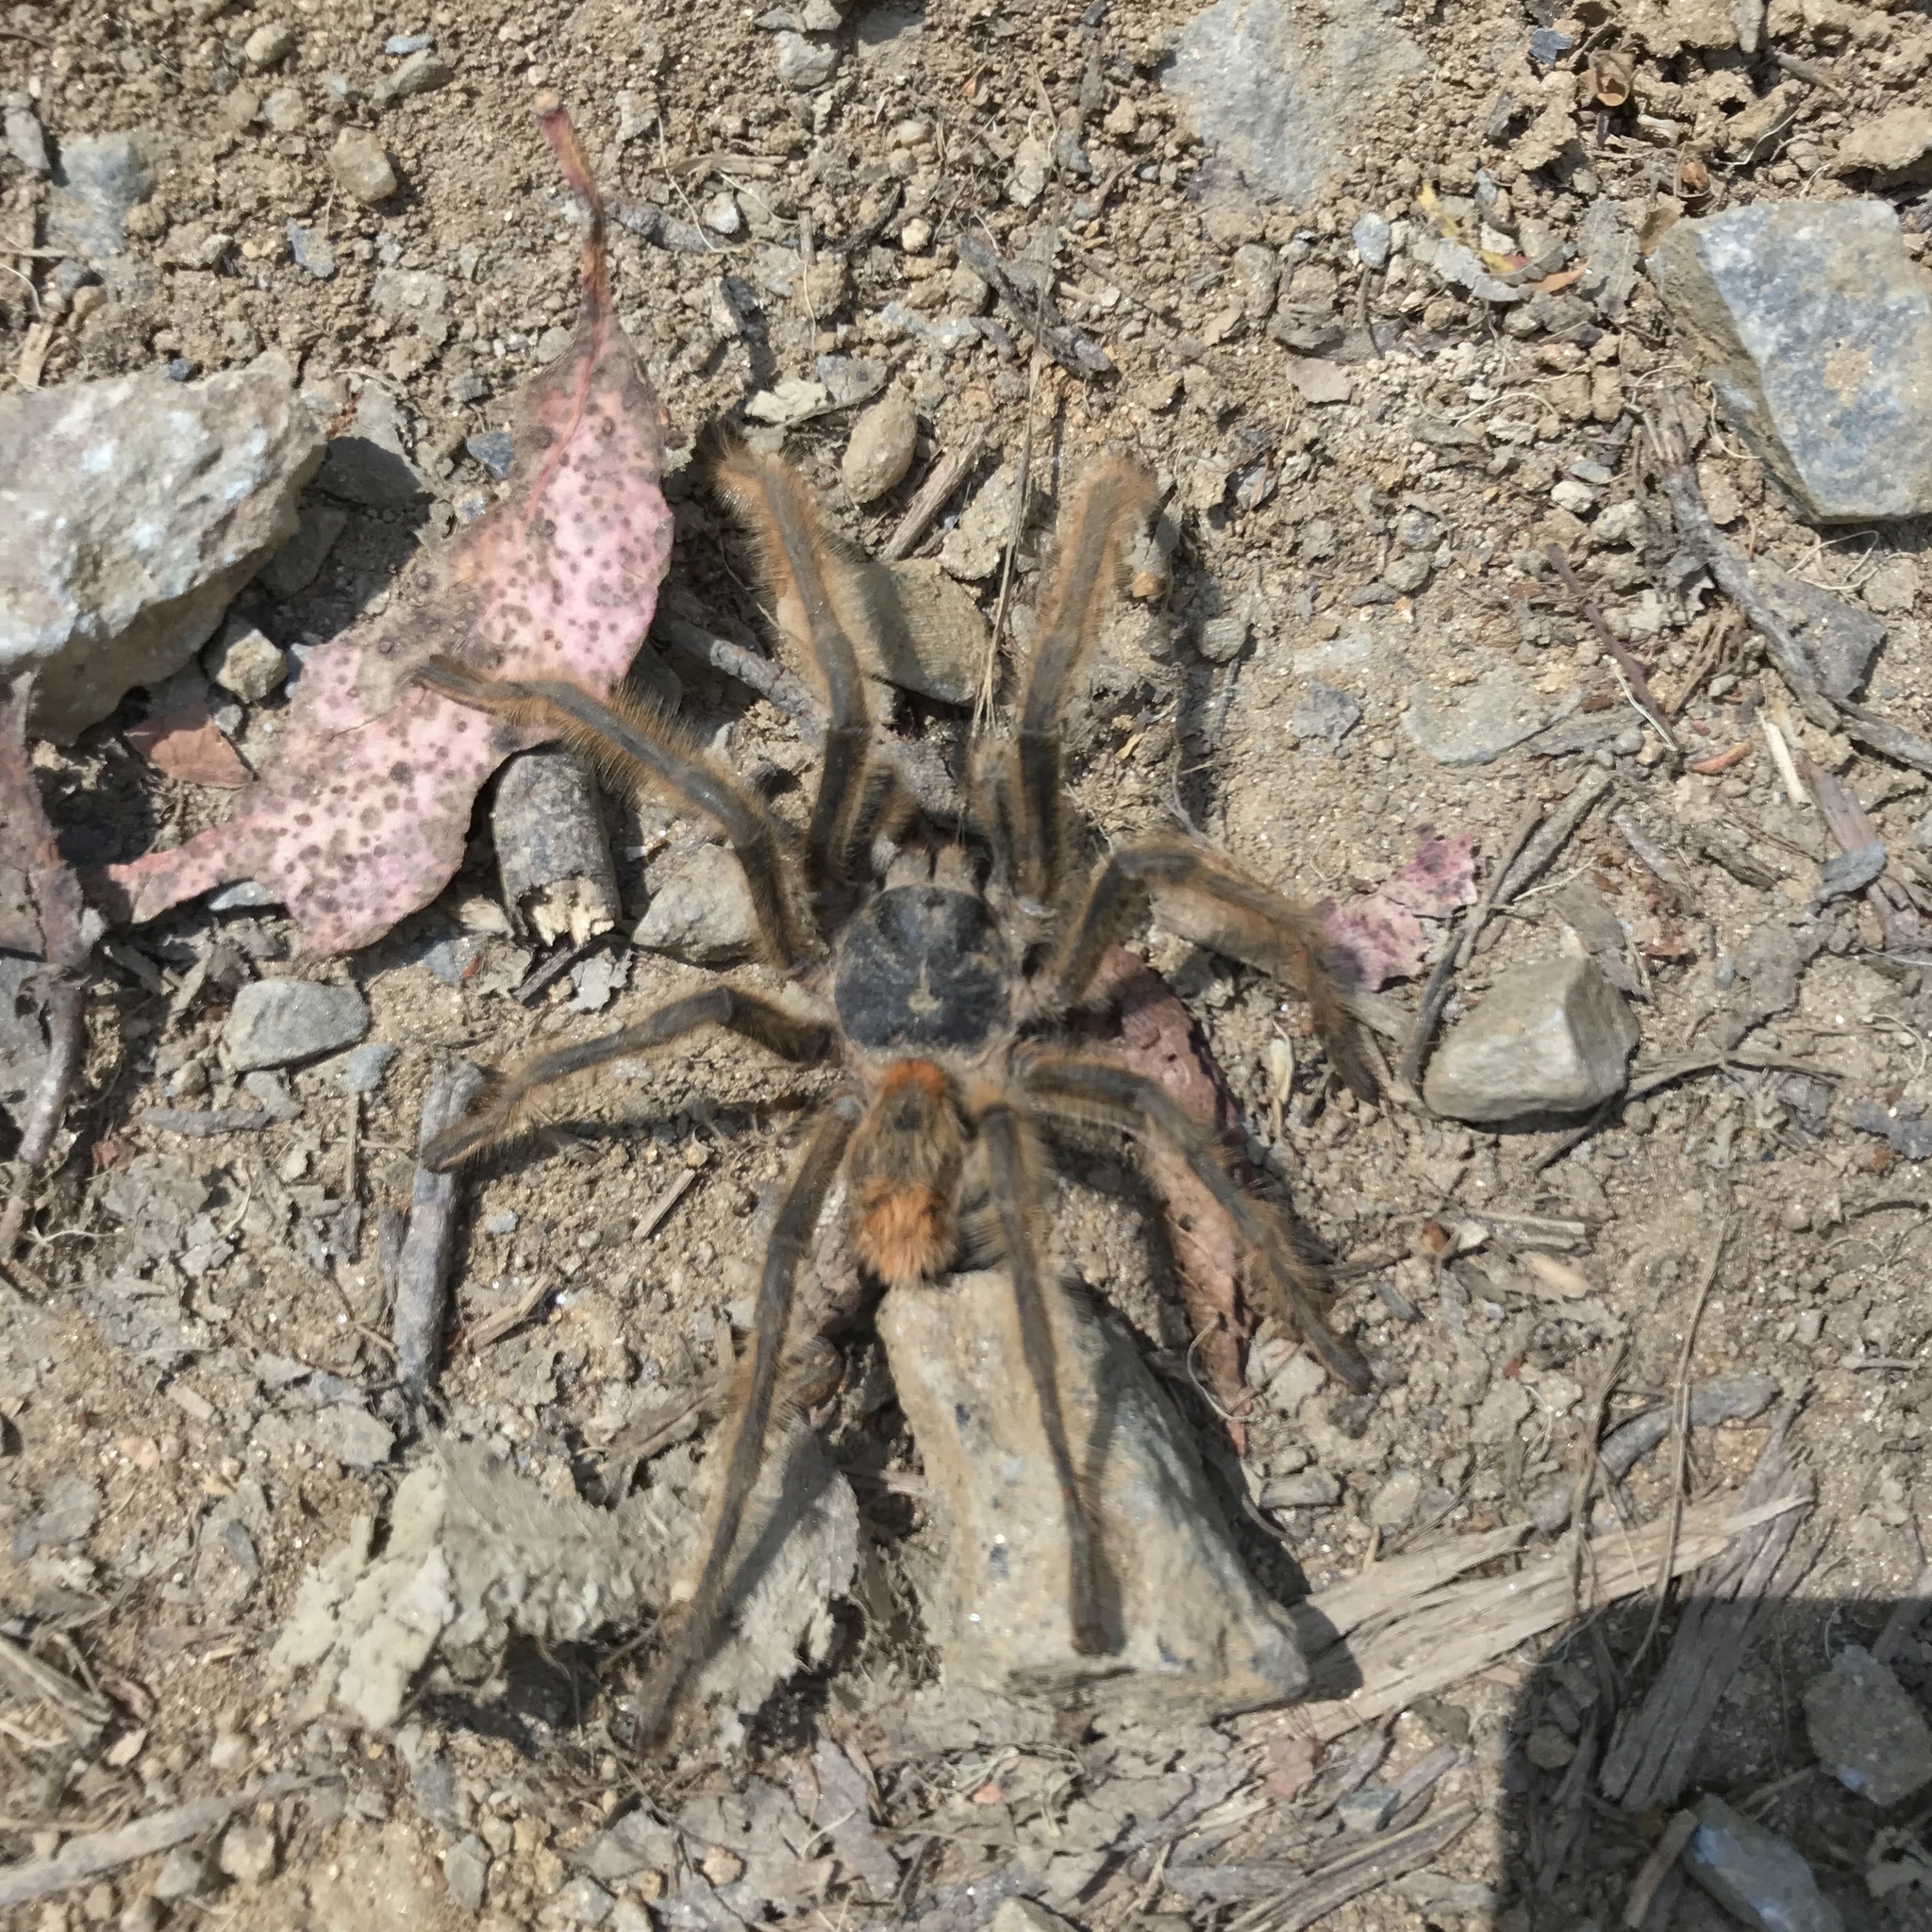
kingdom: Animalia
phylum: Arthropoda
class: Arachnida
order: Araneae
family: Theraphosidae
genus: Phrixotrichus
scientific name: Phrixotrichus vulpinus
